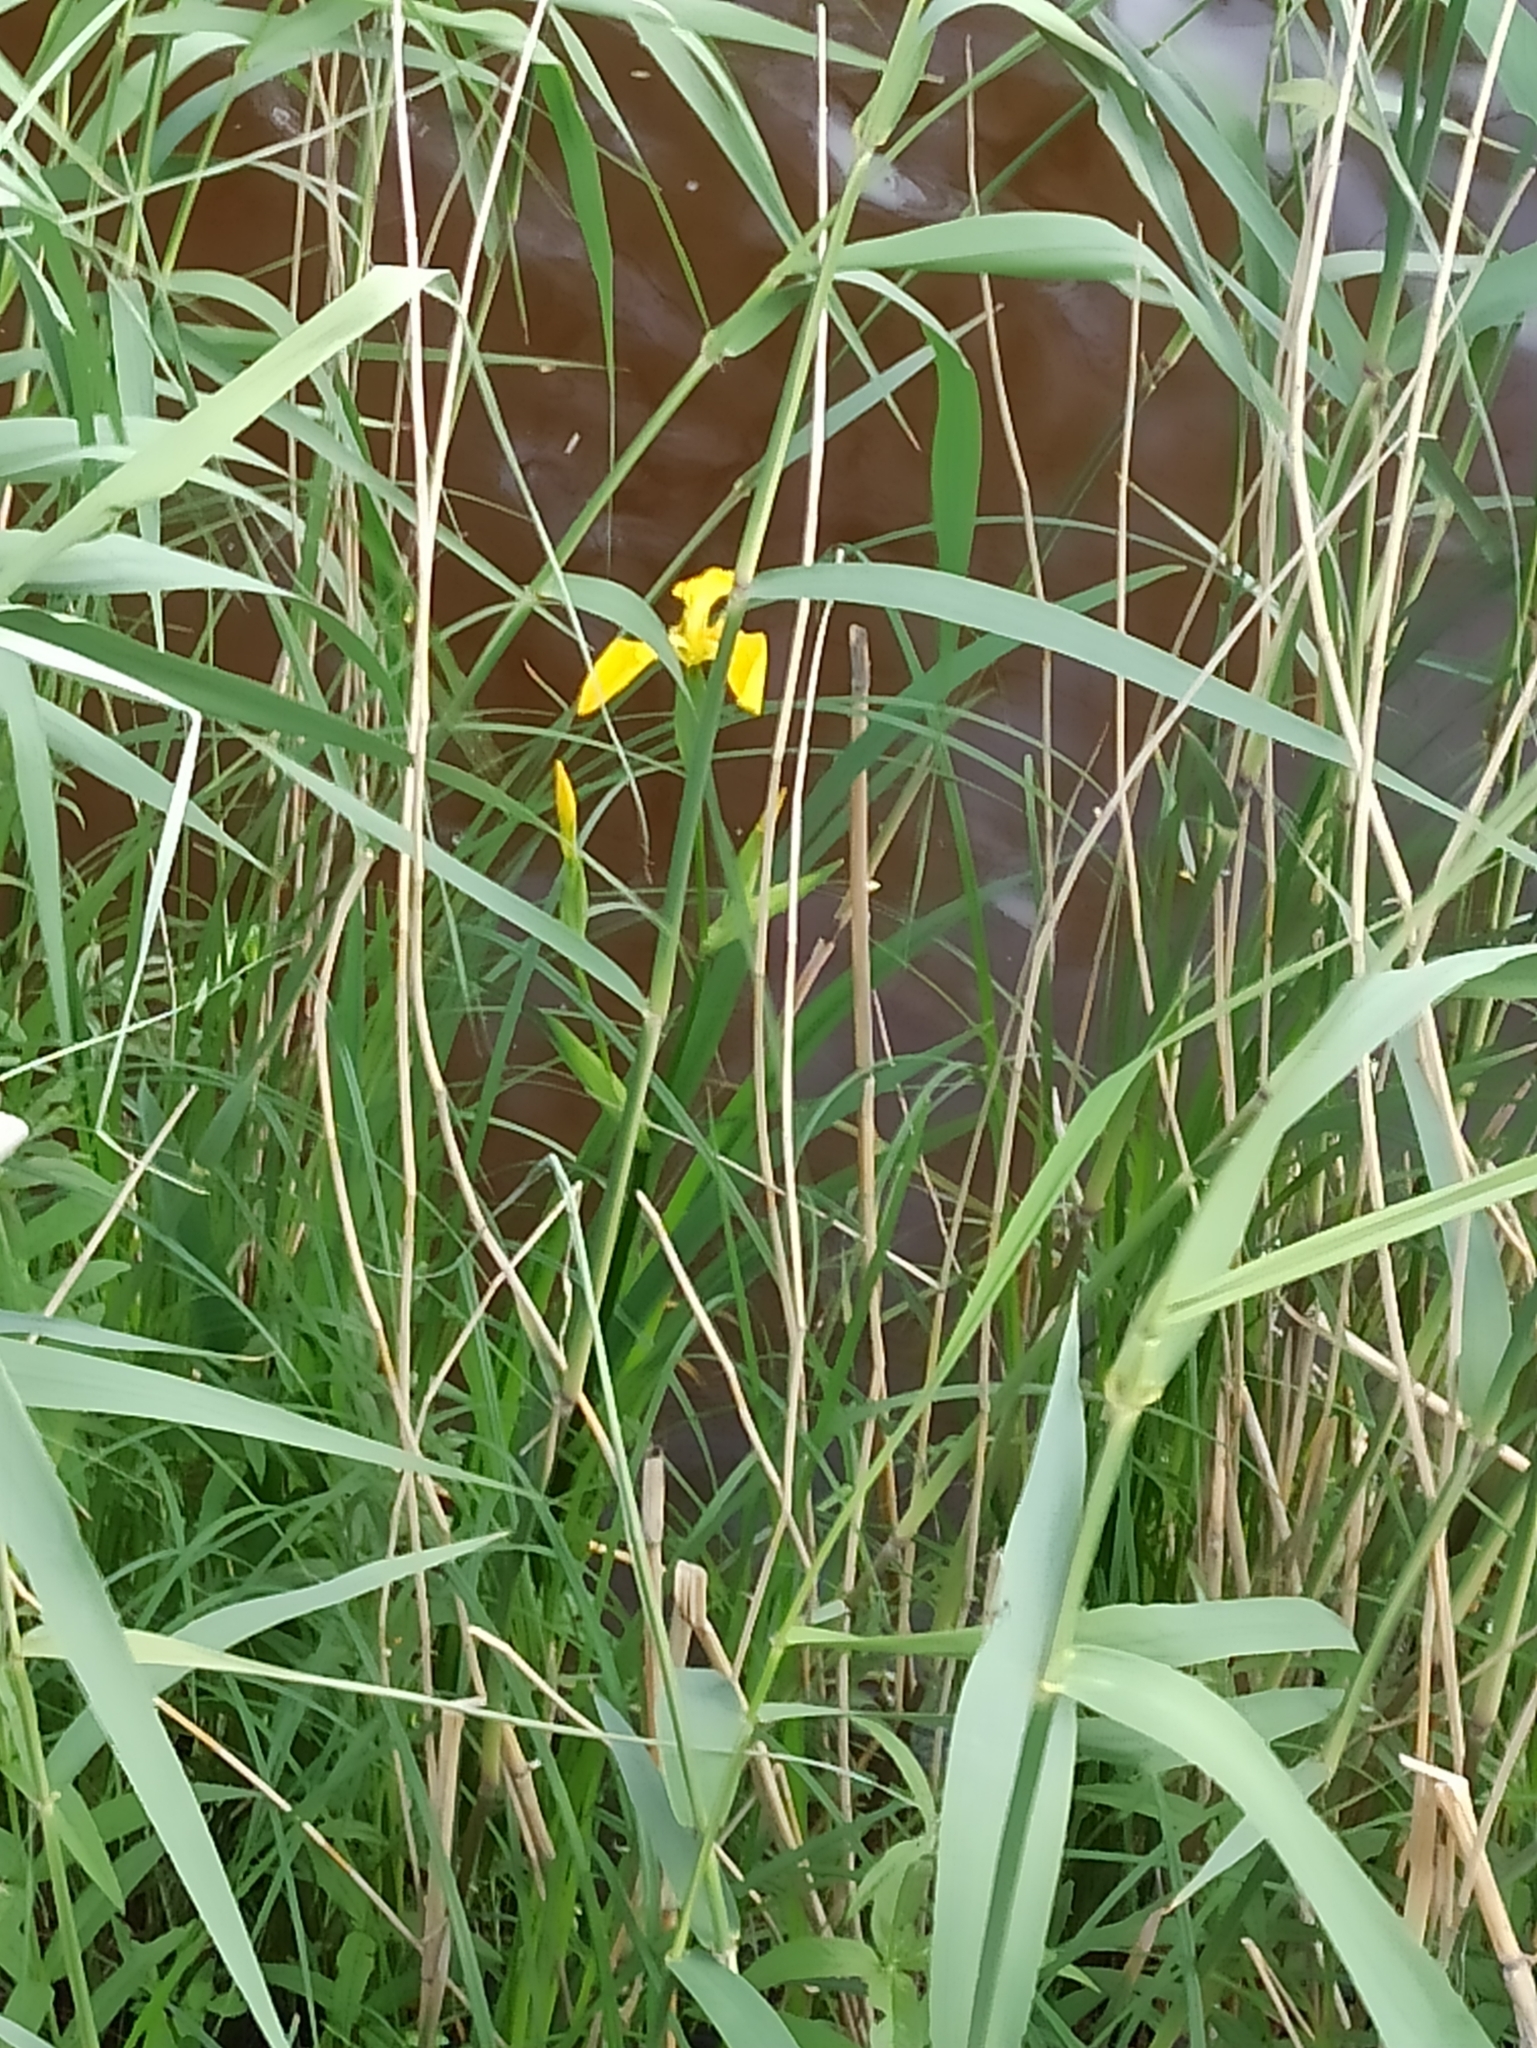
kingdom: Plantae
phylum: Tracheophyta
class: Liliopsida
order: Asparagales
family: Iridaceae
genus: Iris
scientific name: Iris pseudacorus
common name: Yellow flag
